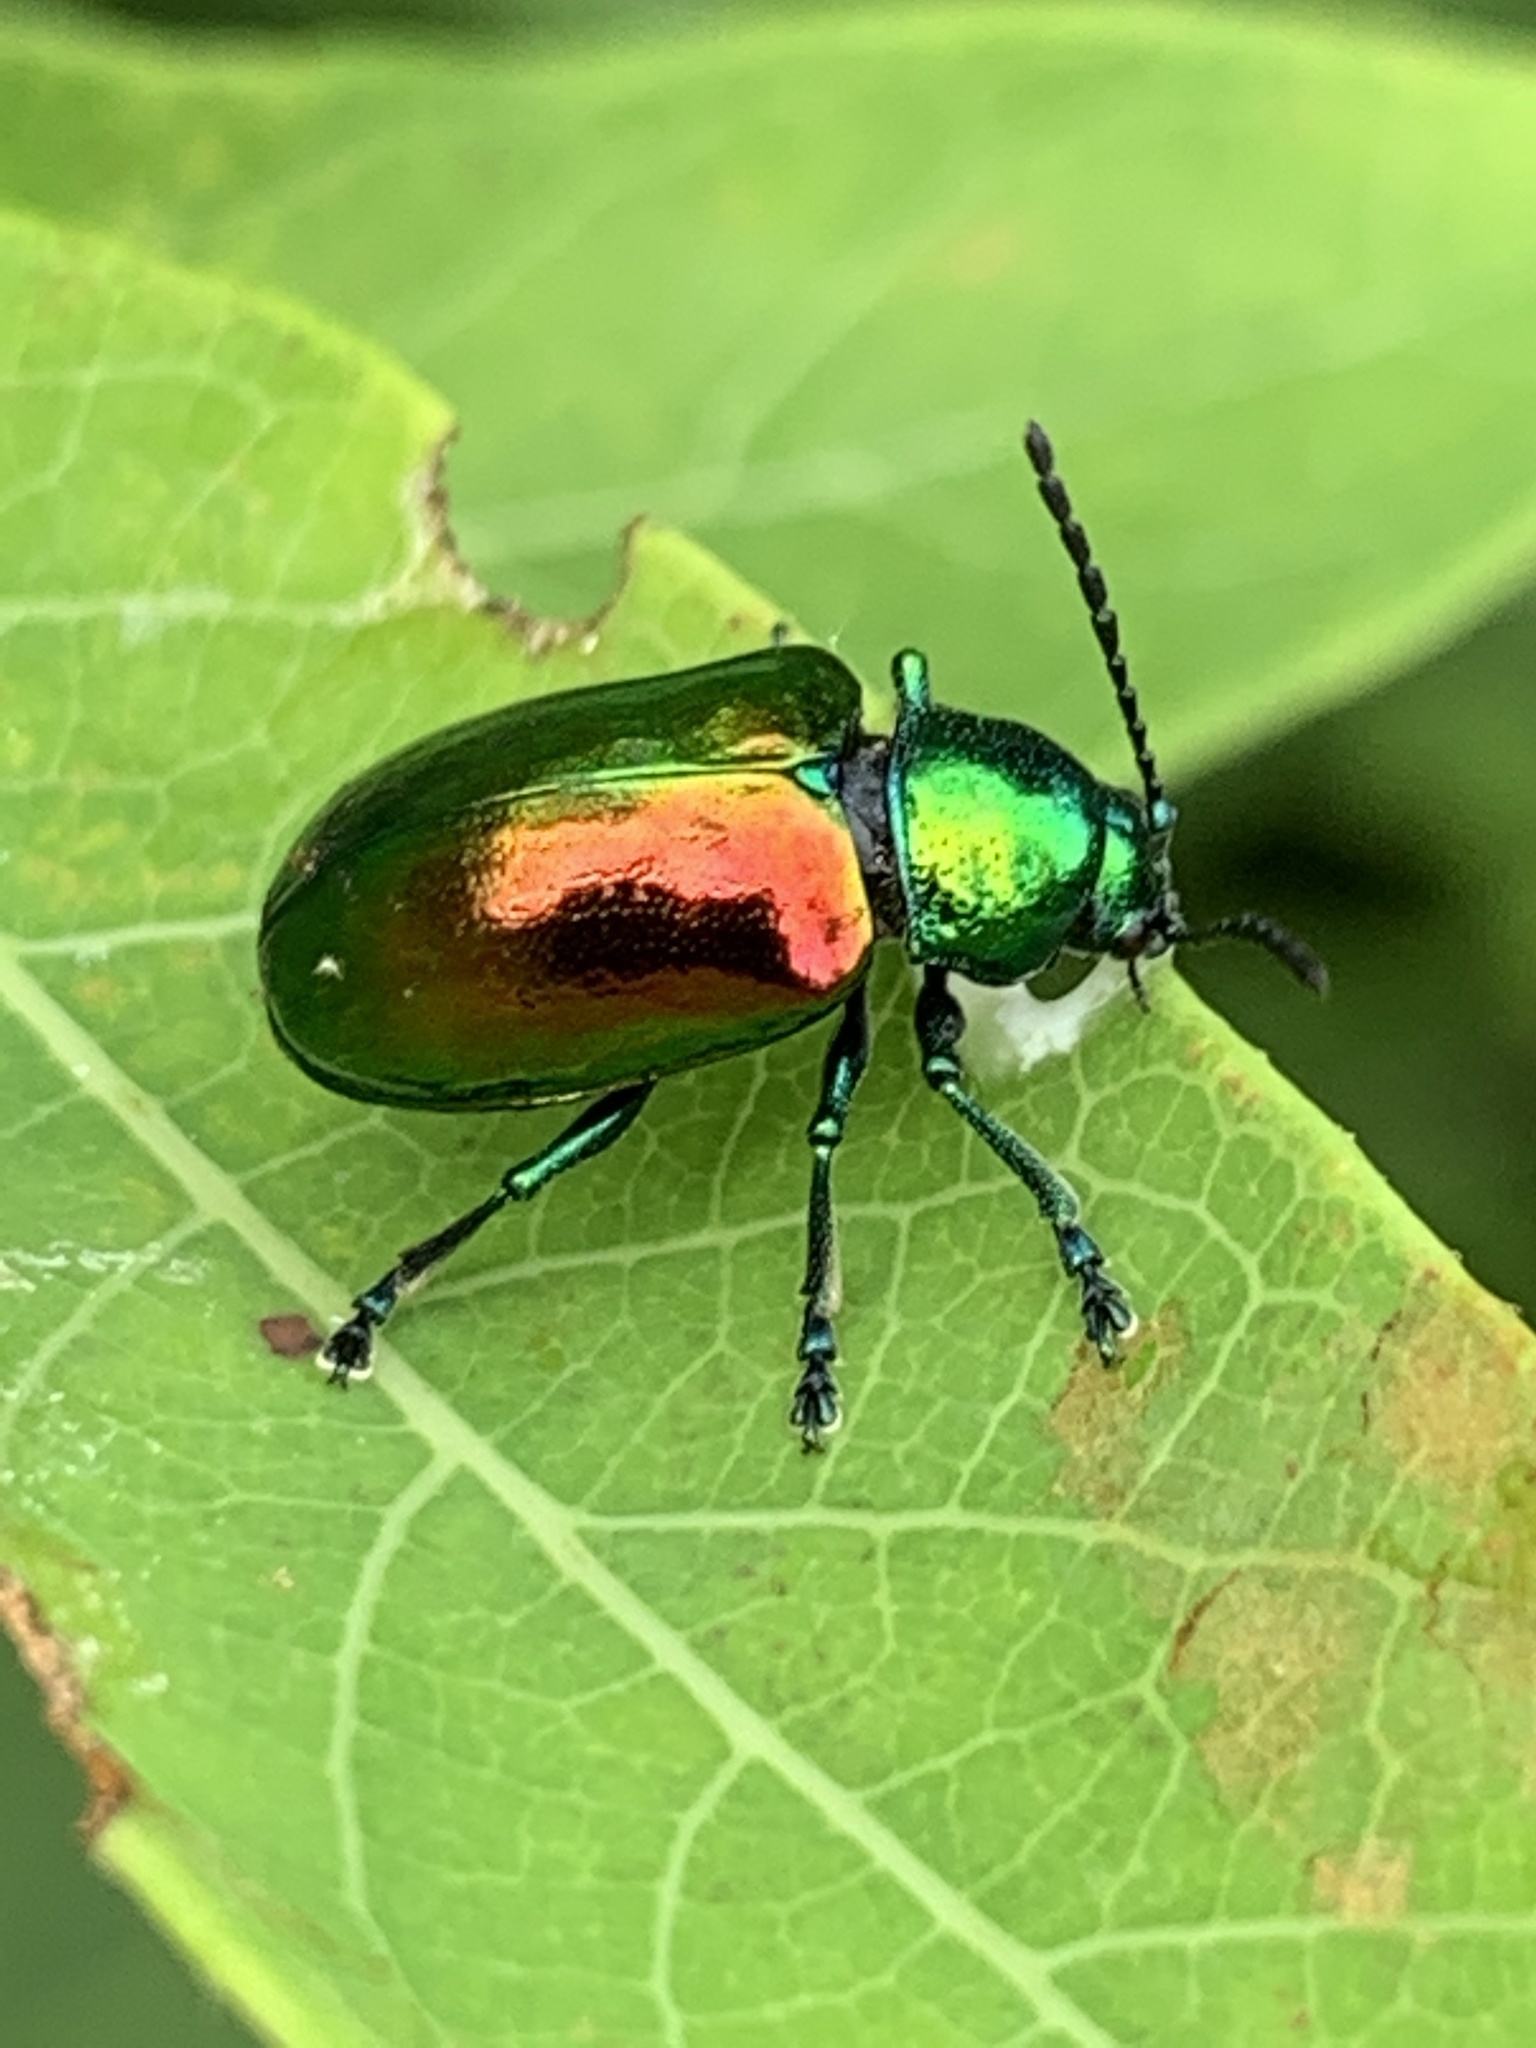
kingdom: Animalia
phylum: Arthropoda
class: Insecta
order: Coleoptera
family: Chrysomelidae
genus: Chrysochus
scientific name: Chrysochus auratus
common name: Dogbane leaf beetle
